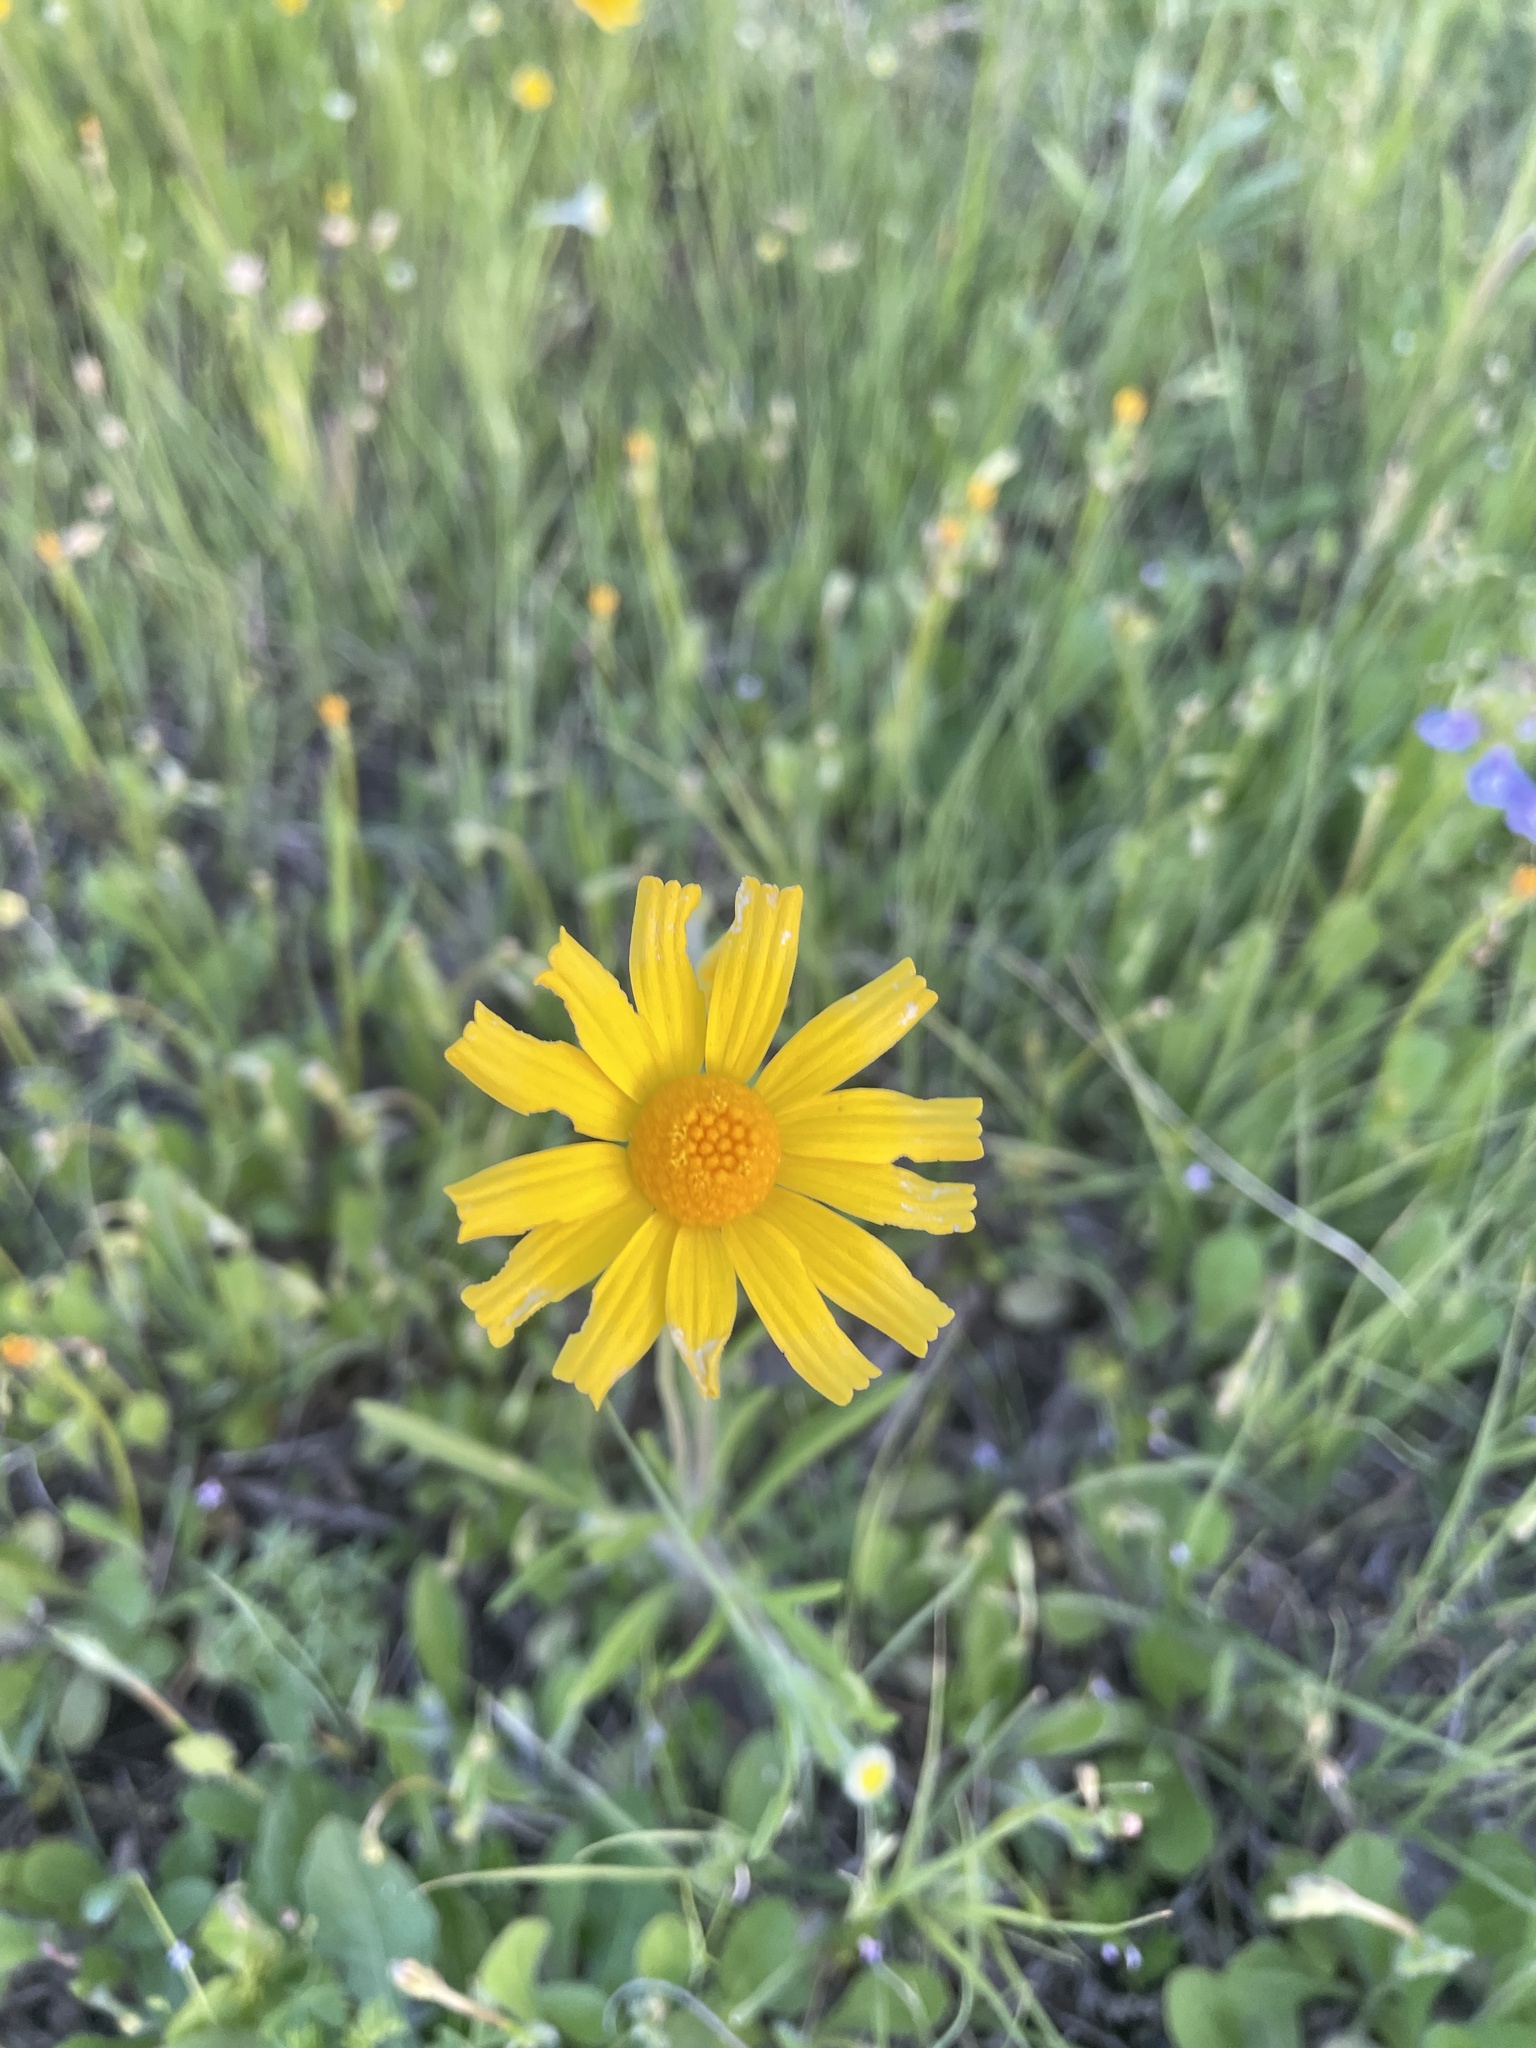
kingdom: Plantae
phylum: Tracheophyta
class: Magnoliopsida
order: Asterales
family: Asteraceae
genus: Tetraneuris
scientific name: Tetraneuris linearifolia
